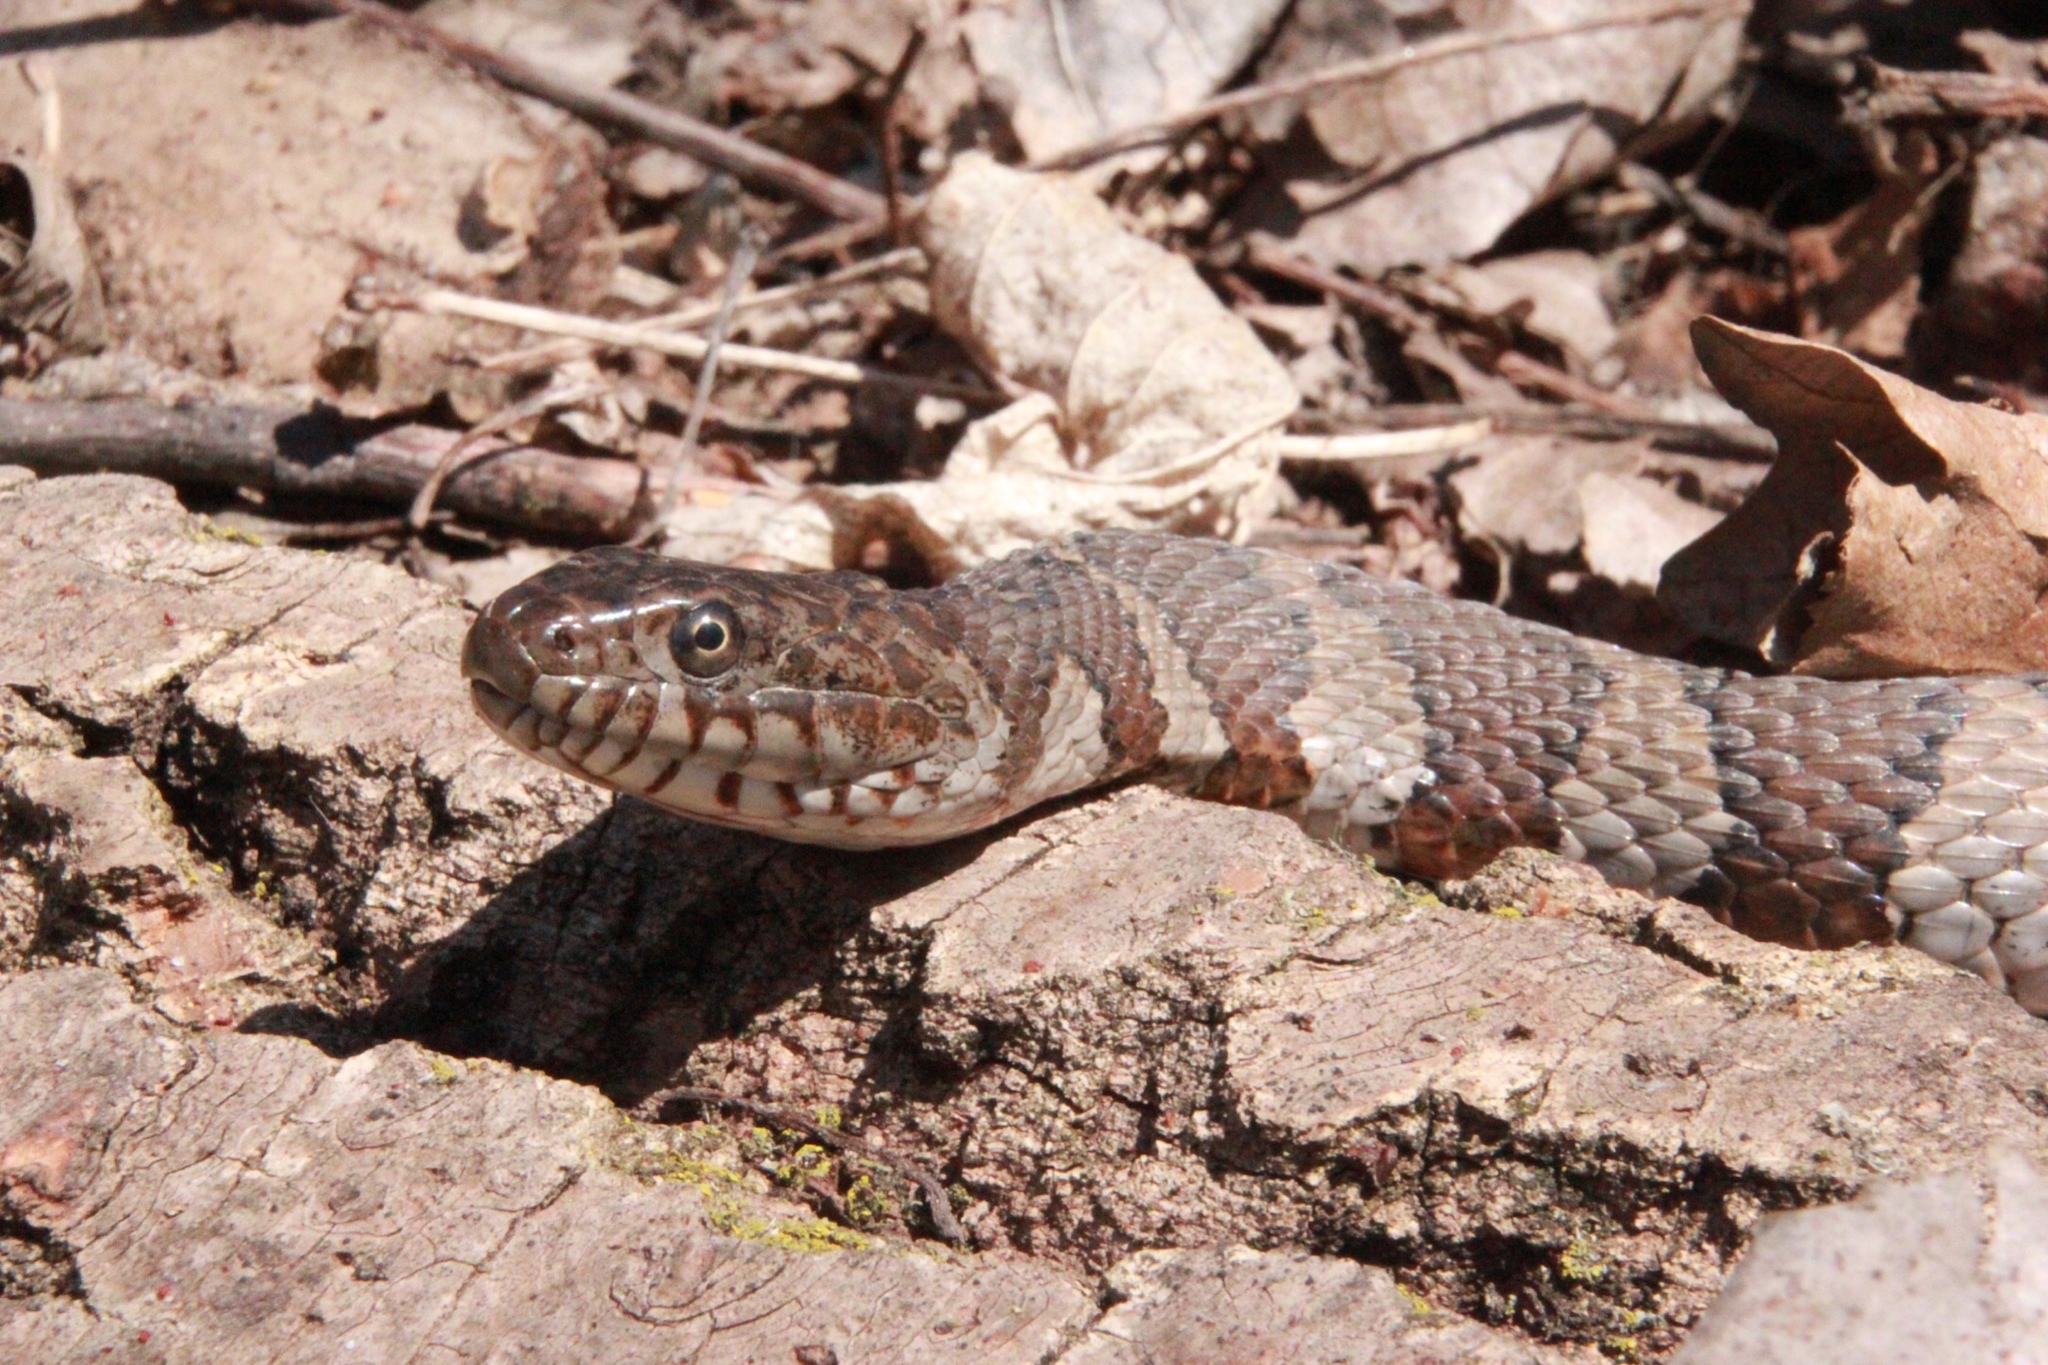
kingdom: Animalia
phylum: Chordata
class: Squamata
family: Colubridae
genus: Nerodia
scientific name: Nerodia sipedon
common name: Northern water snake
